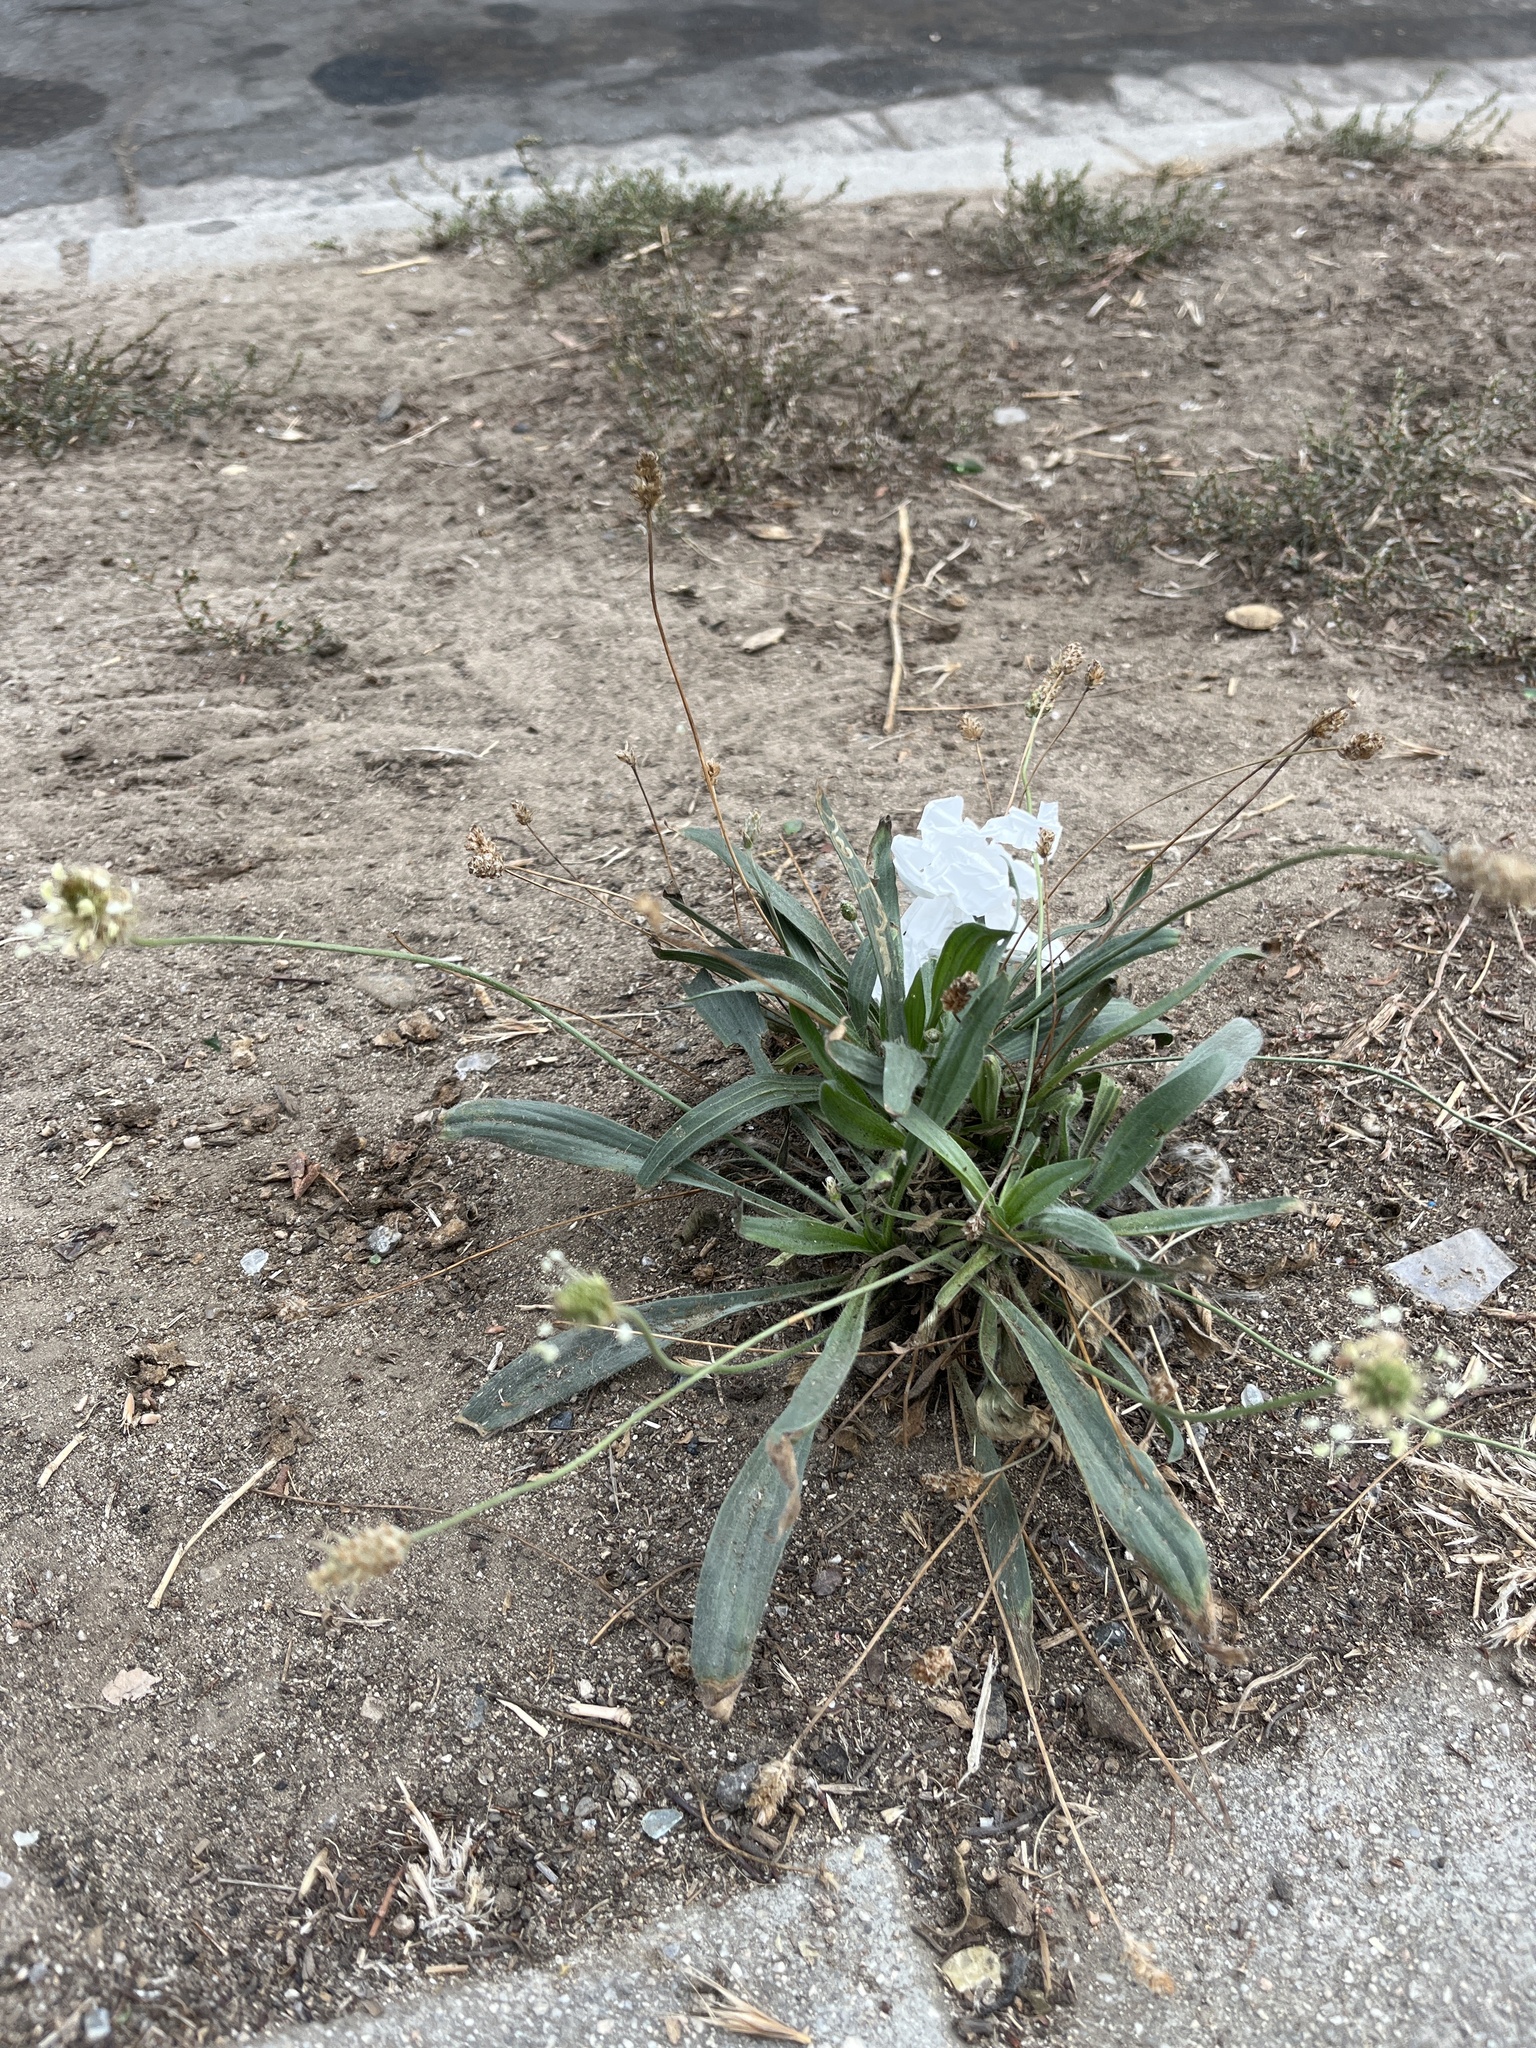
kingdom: Plantae
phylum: Tracheophyta
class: Magnoliopsida
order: Lamiales
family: Plantaginaceae
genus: Plantago
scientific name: Plantago lanceolata
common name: Ribwort plantain
